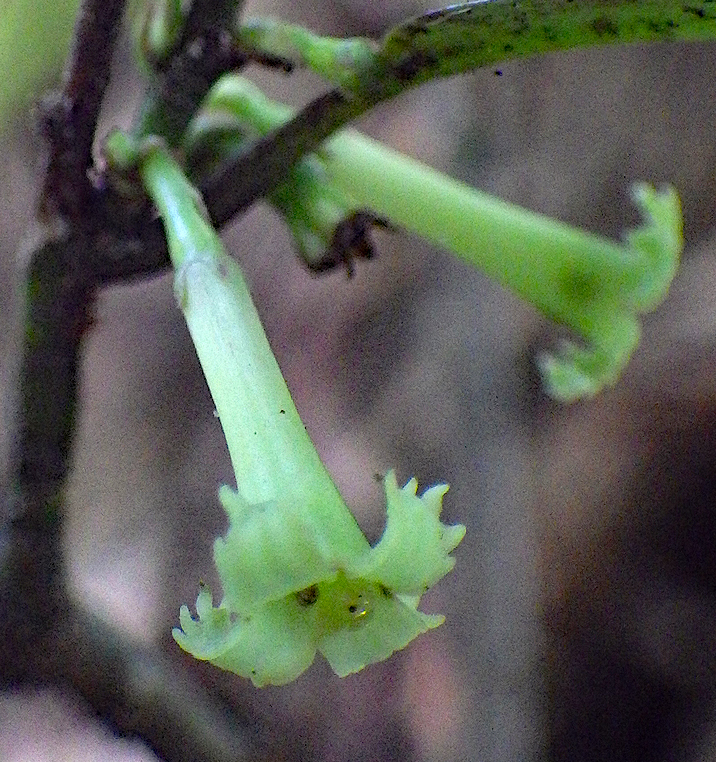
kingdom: Plantae
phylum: Tracheophyta
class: Magnoliopsida
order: Asterales
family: Alseuosmiaceae
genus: Alseuosmia
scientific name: Alseuosmia banksii
